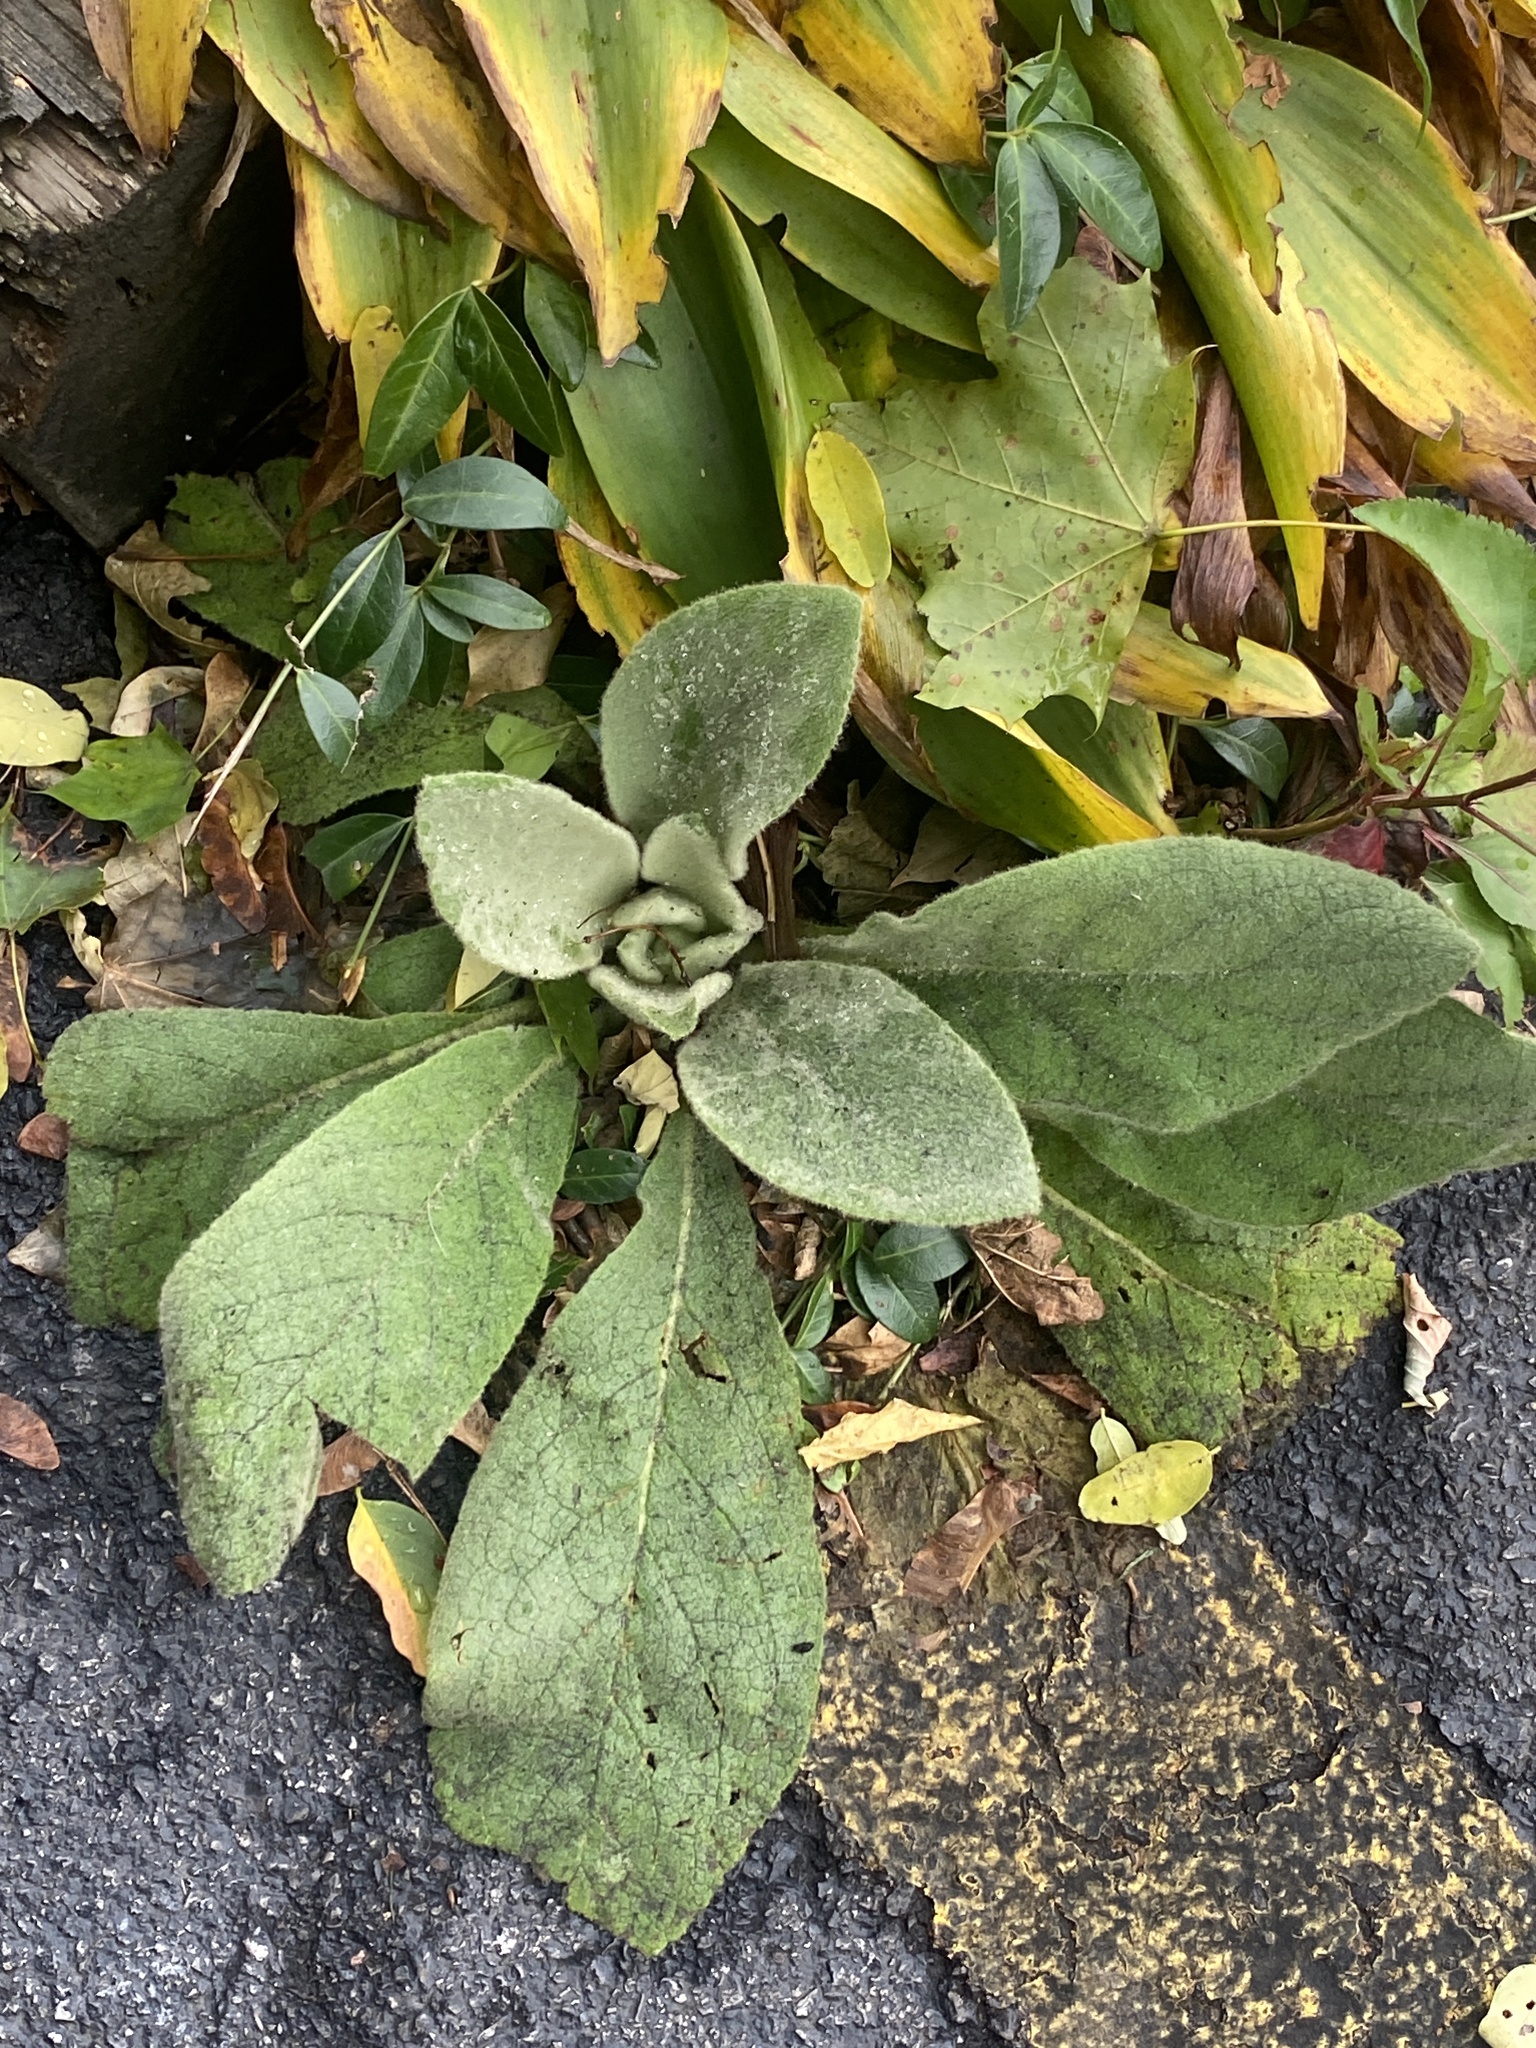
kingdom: Plantae
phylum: Tracheophyta
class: Magnoliopsida
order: Lamiales
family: Scrophulariaceae
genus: Verbascum
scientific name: Verbascum thapsus
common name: Common mullein
